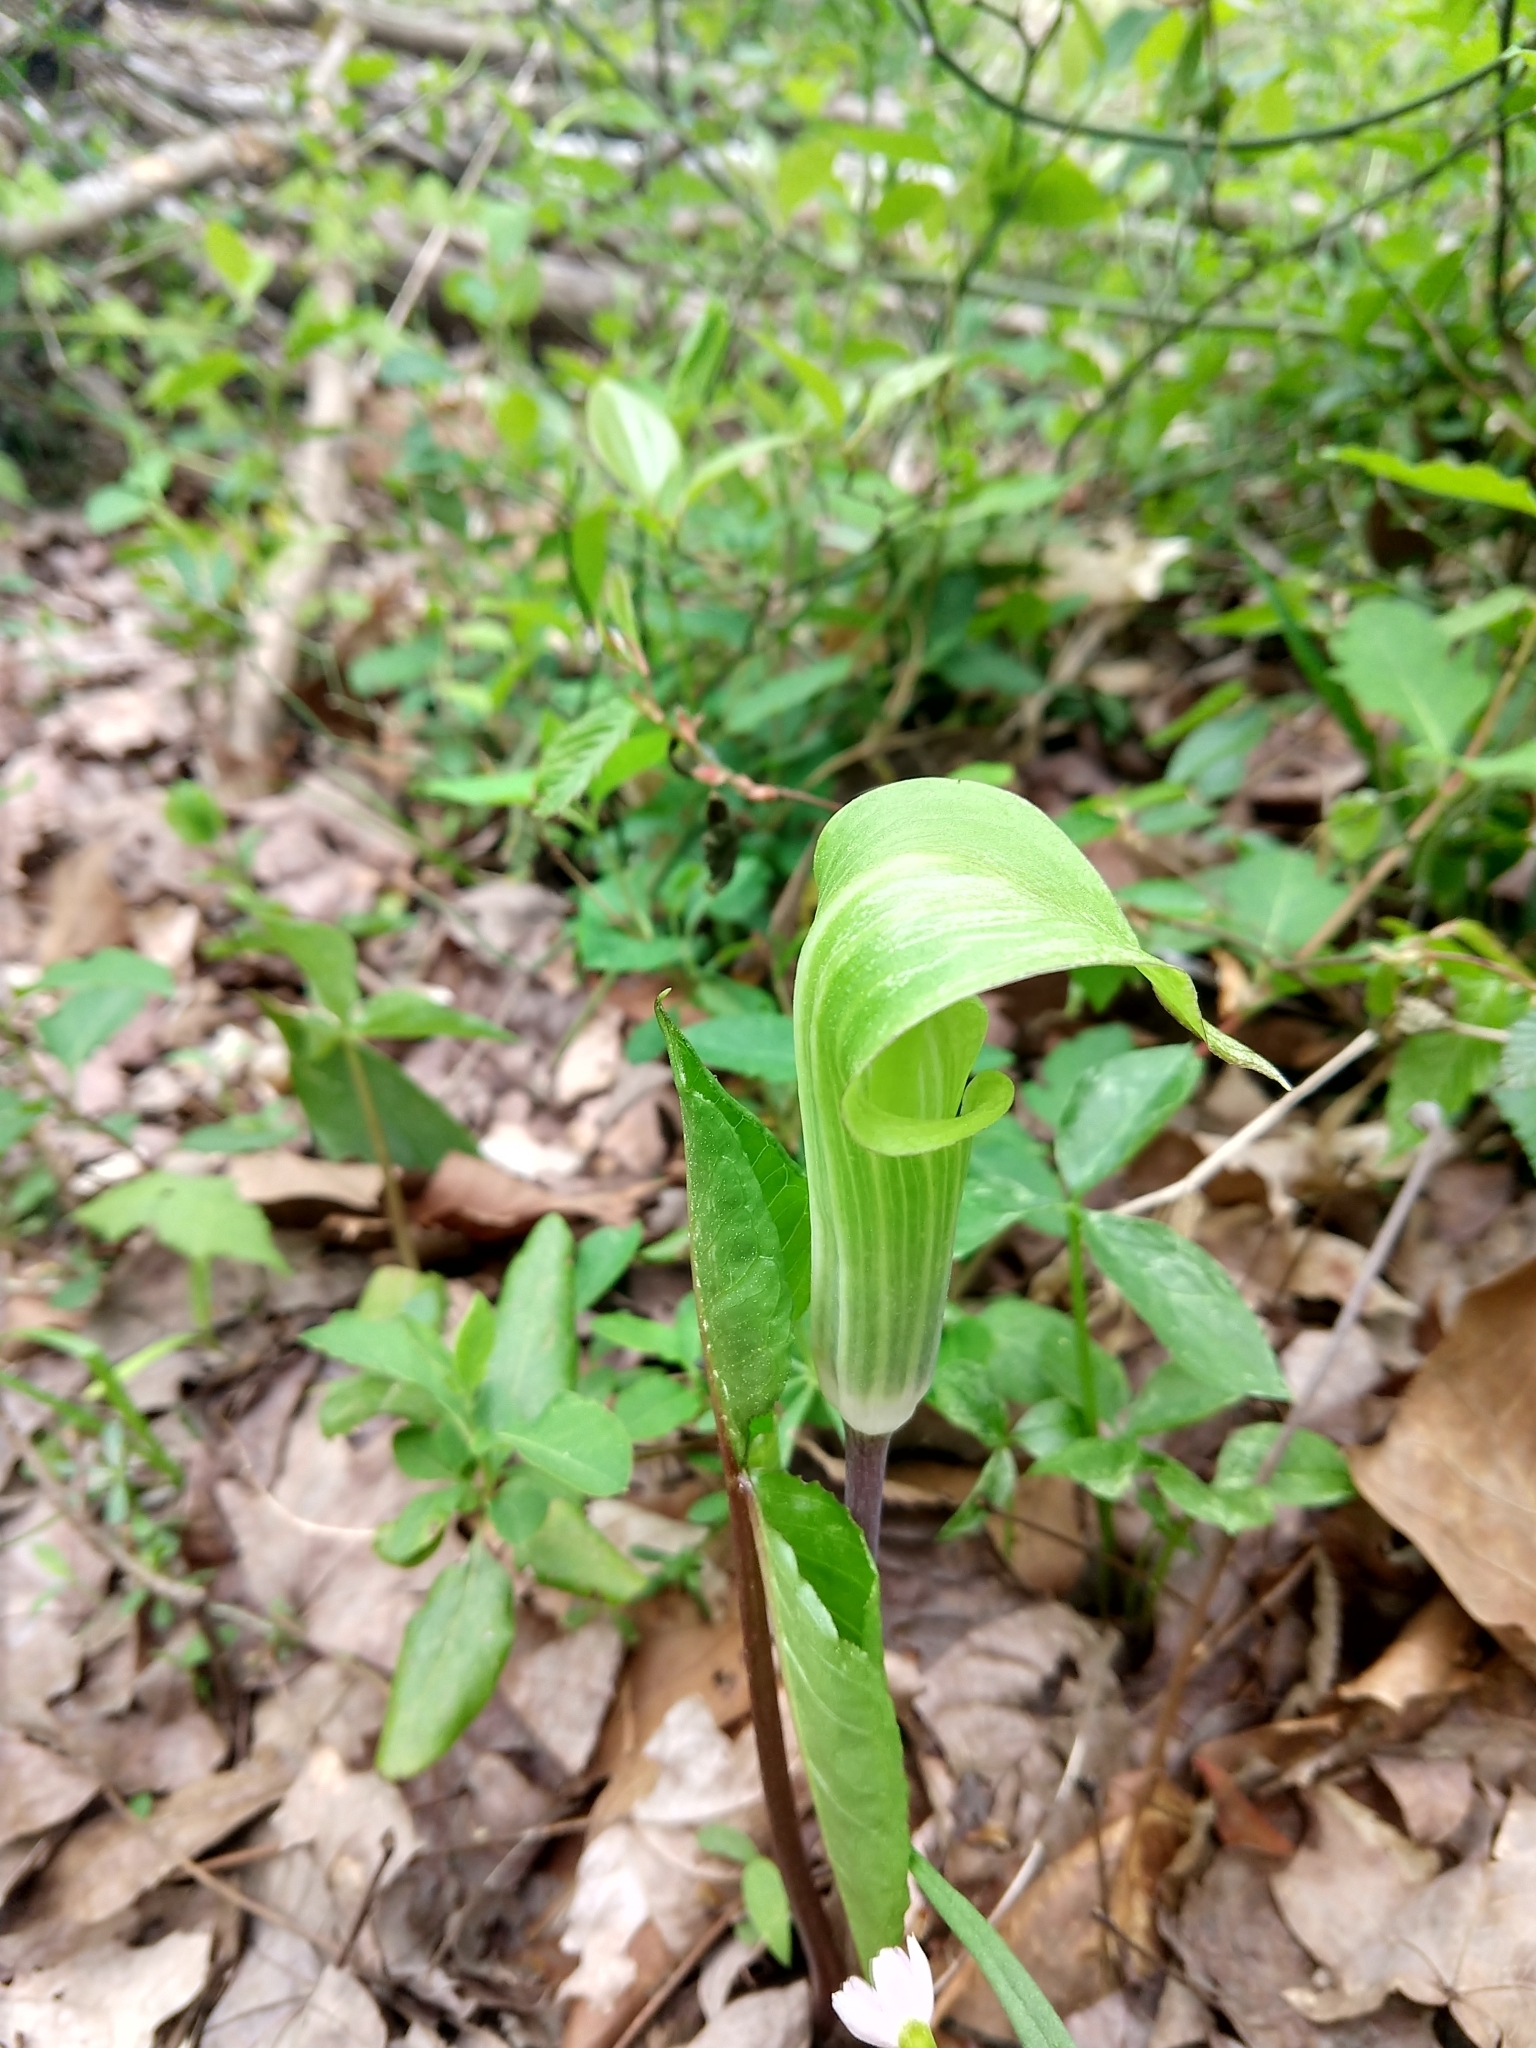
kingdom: Plantae
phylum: Tracheophyta
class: Liliopsida
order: Alismatales
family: Araceae
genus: Arisaema
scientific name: Arisaema triphyllum
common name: Jack-in-the-pulpit
